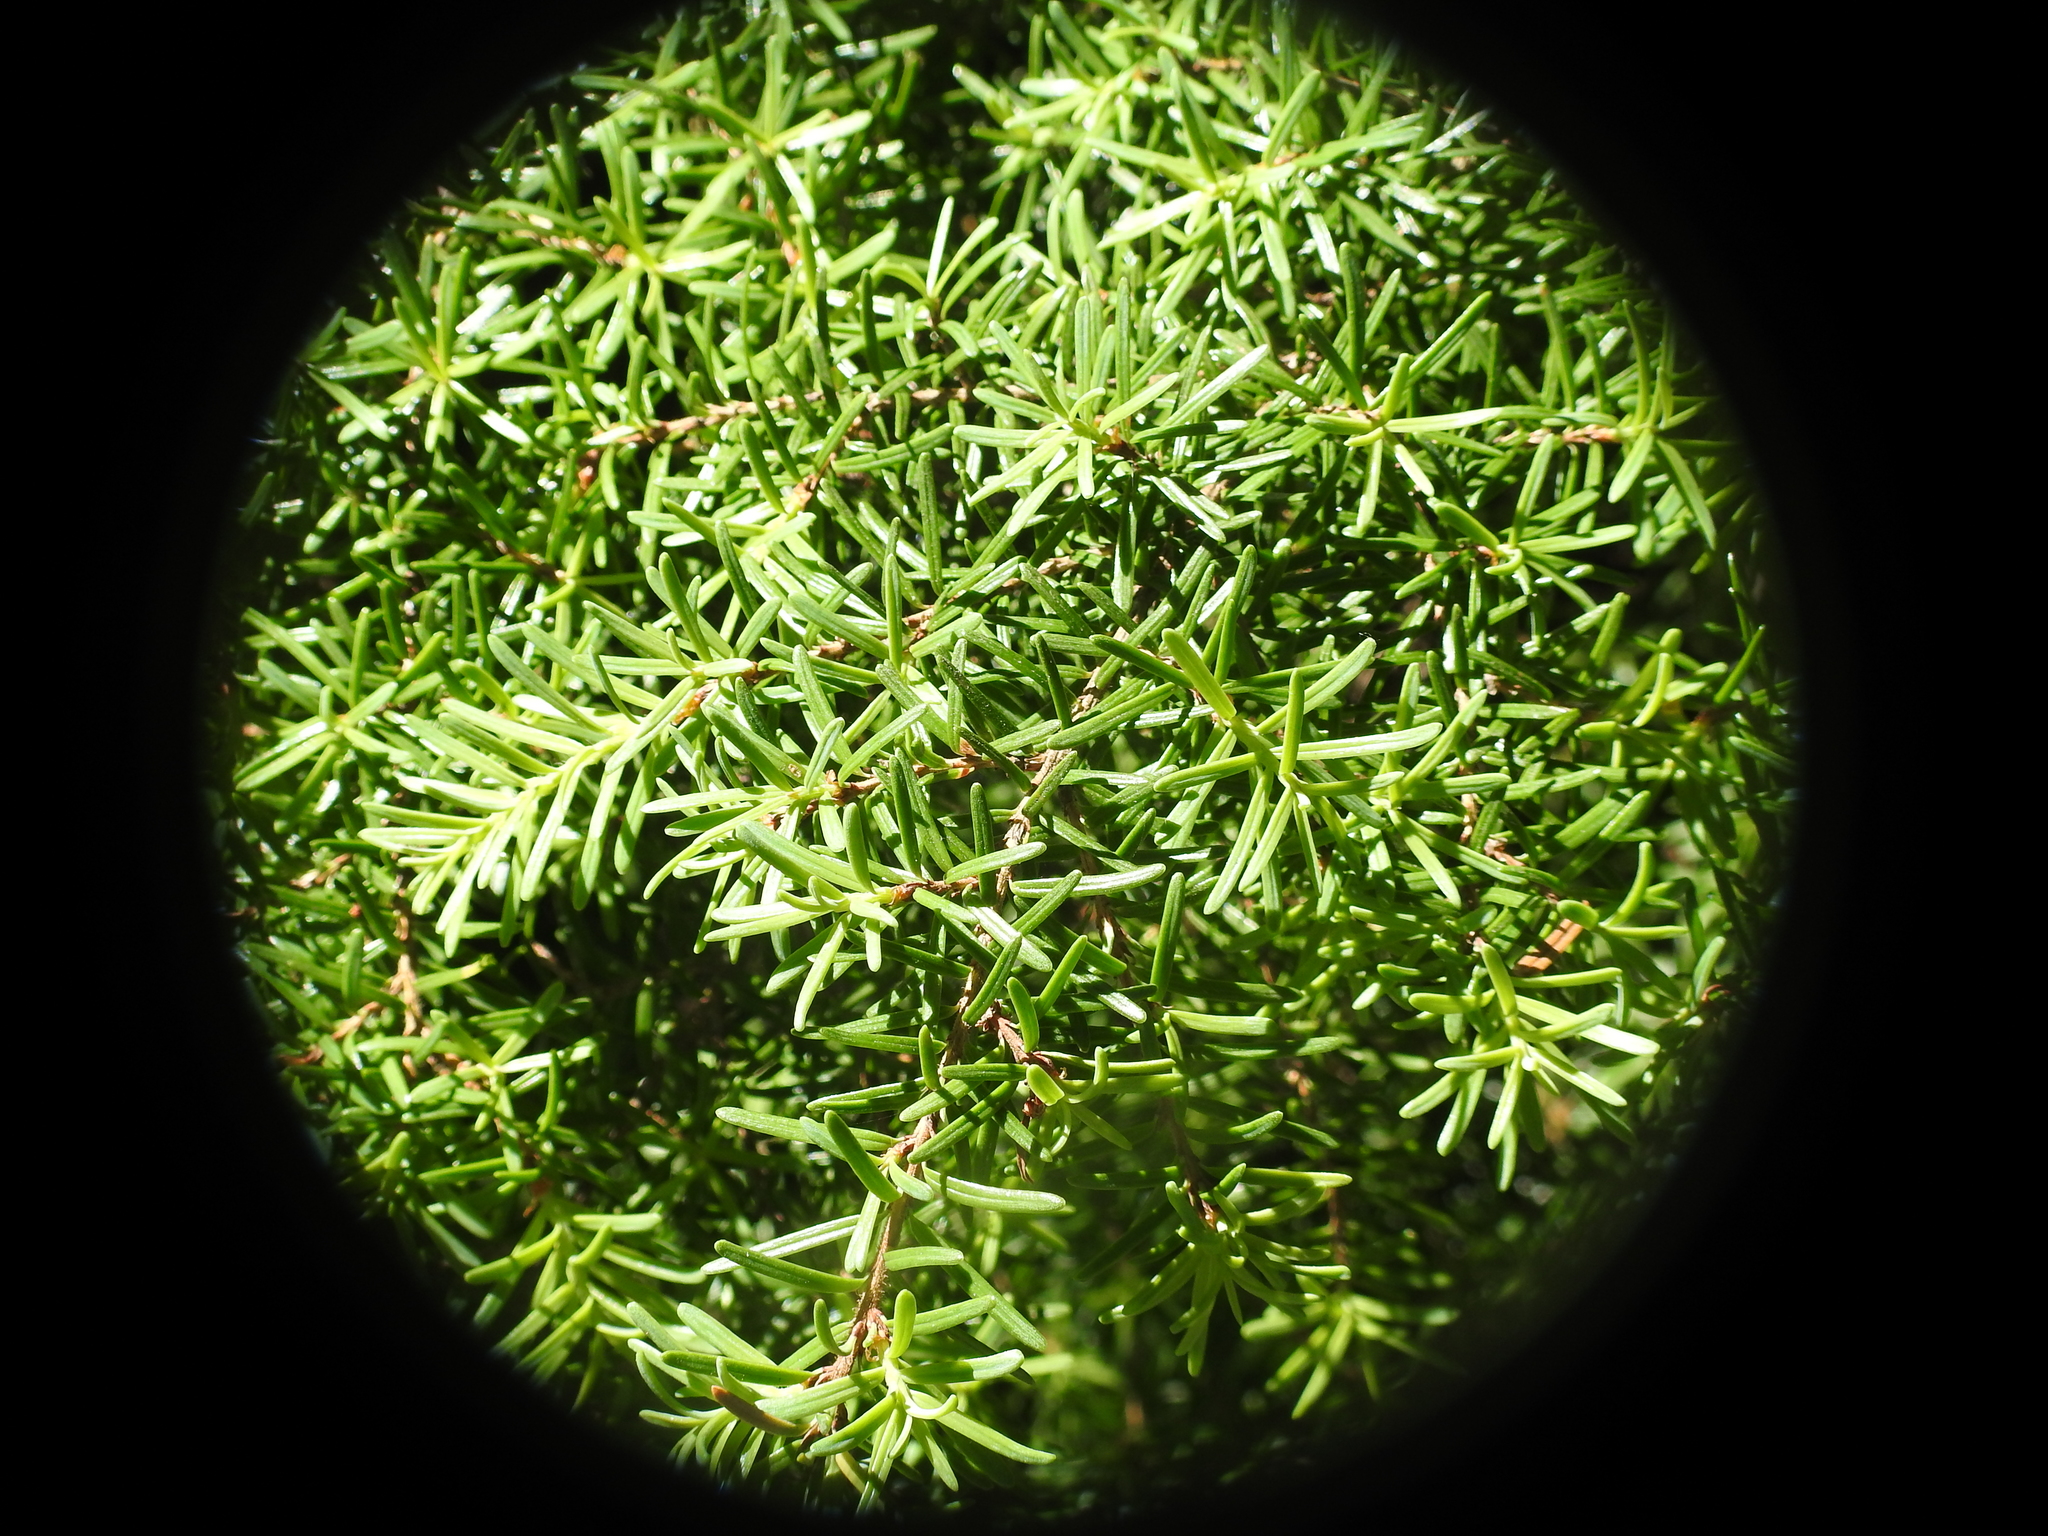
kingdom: Plantae
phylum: Tracheophyta
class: Pinopsida
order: Pinales
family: Pinaceae
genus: Tsuga
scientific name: Tsuga heterophylla
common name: Western hemlock
